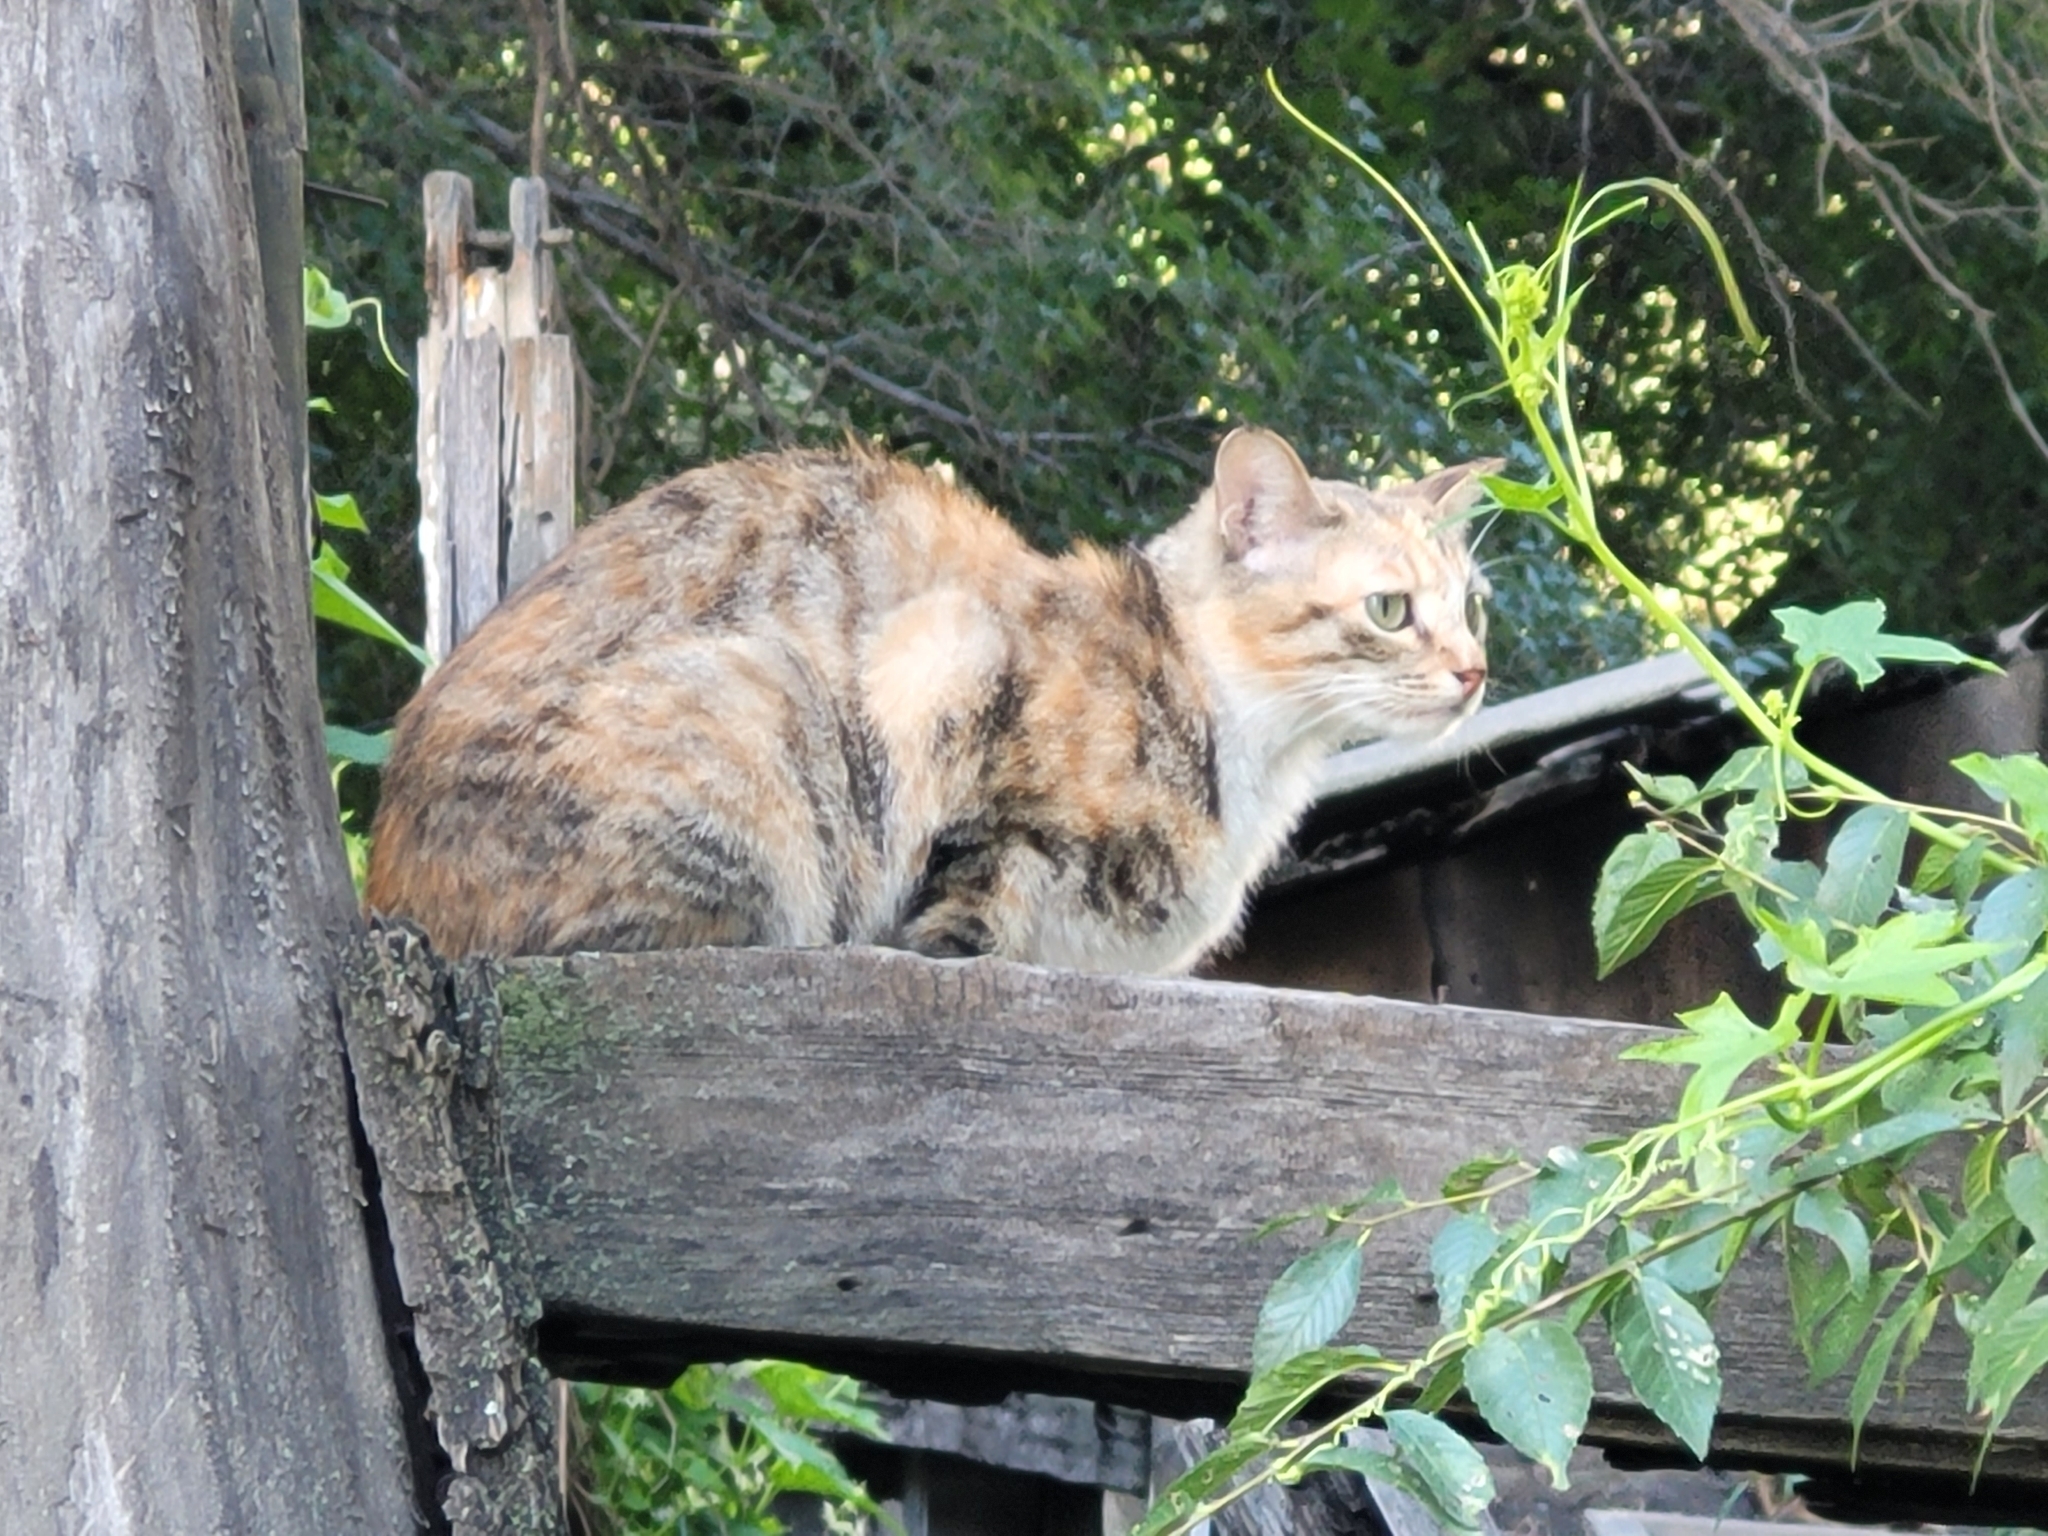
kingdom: Animalia
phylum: Chordata
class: Mammalia
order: Carnivora
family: Felidae
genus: Felis
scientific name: Felis catus
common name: Domestic cat
